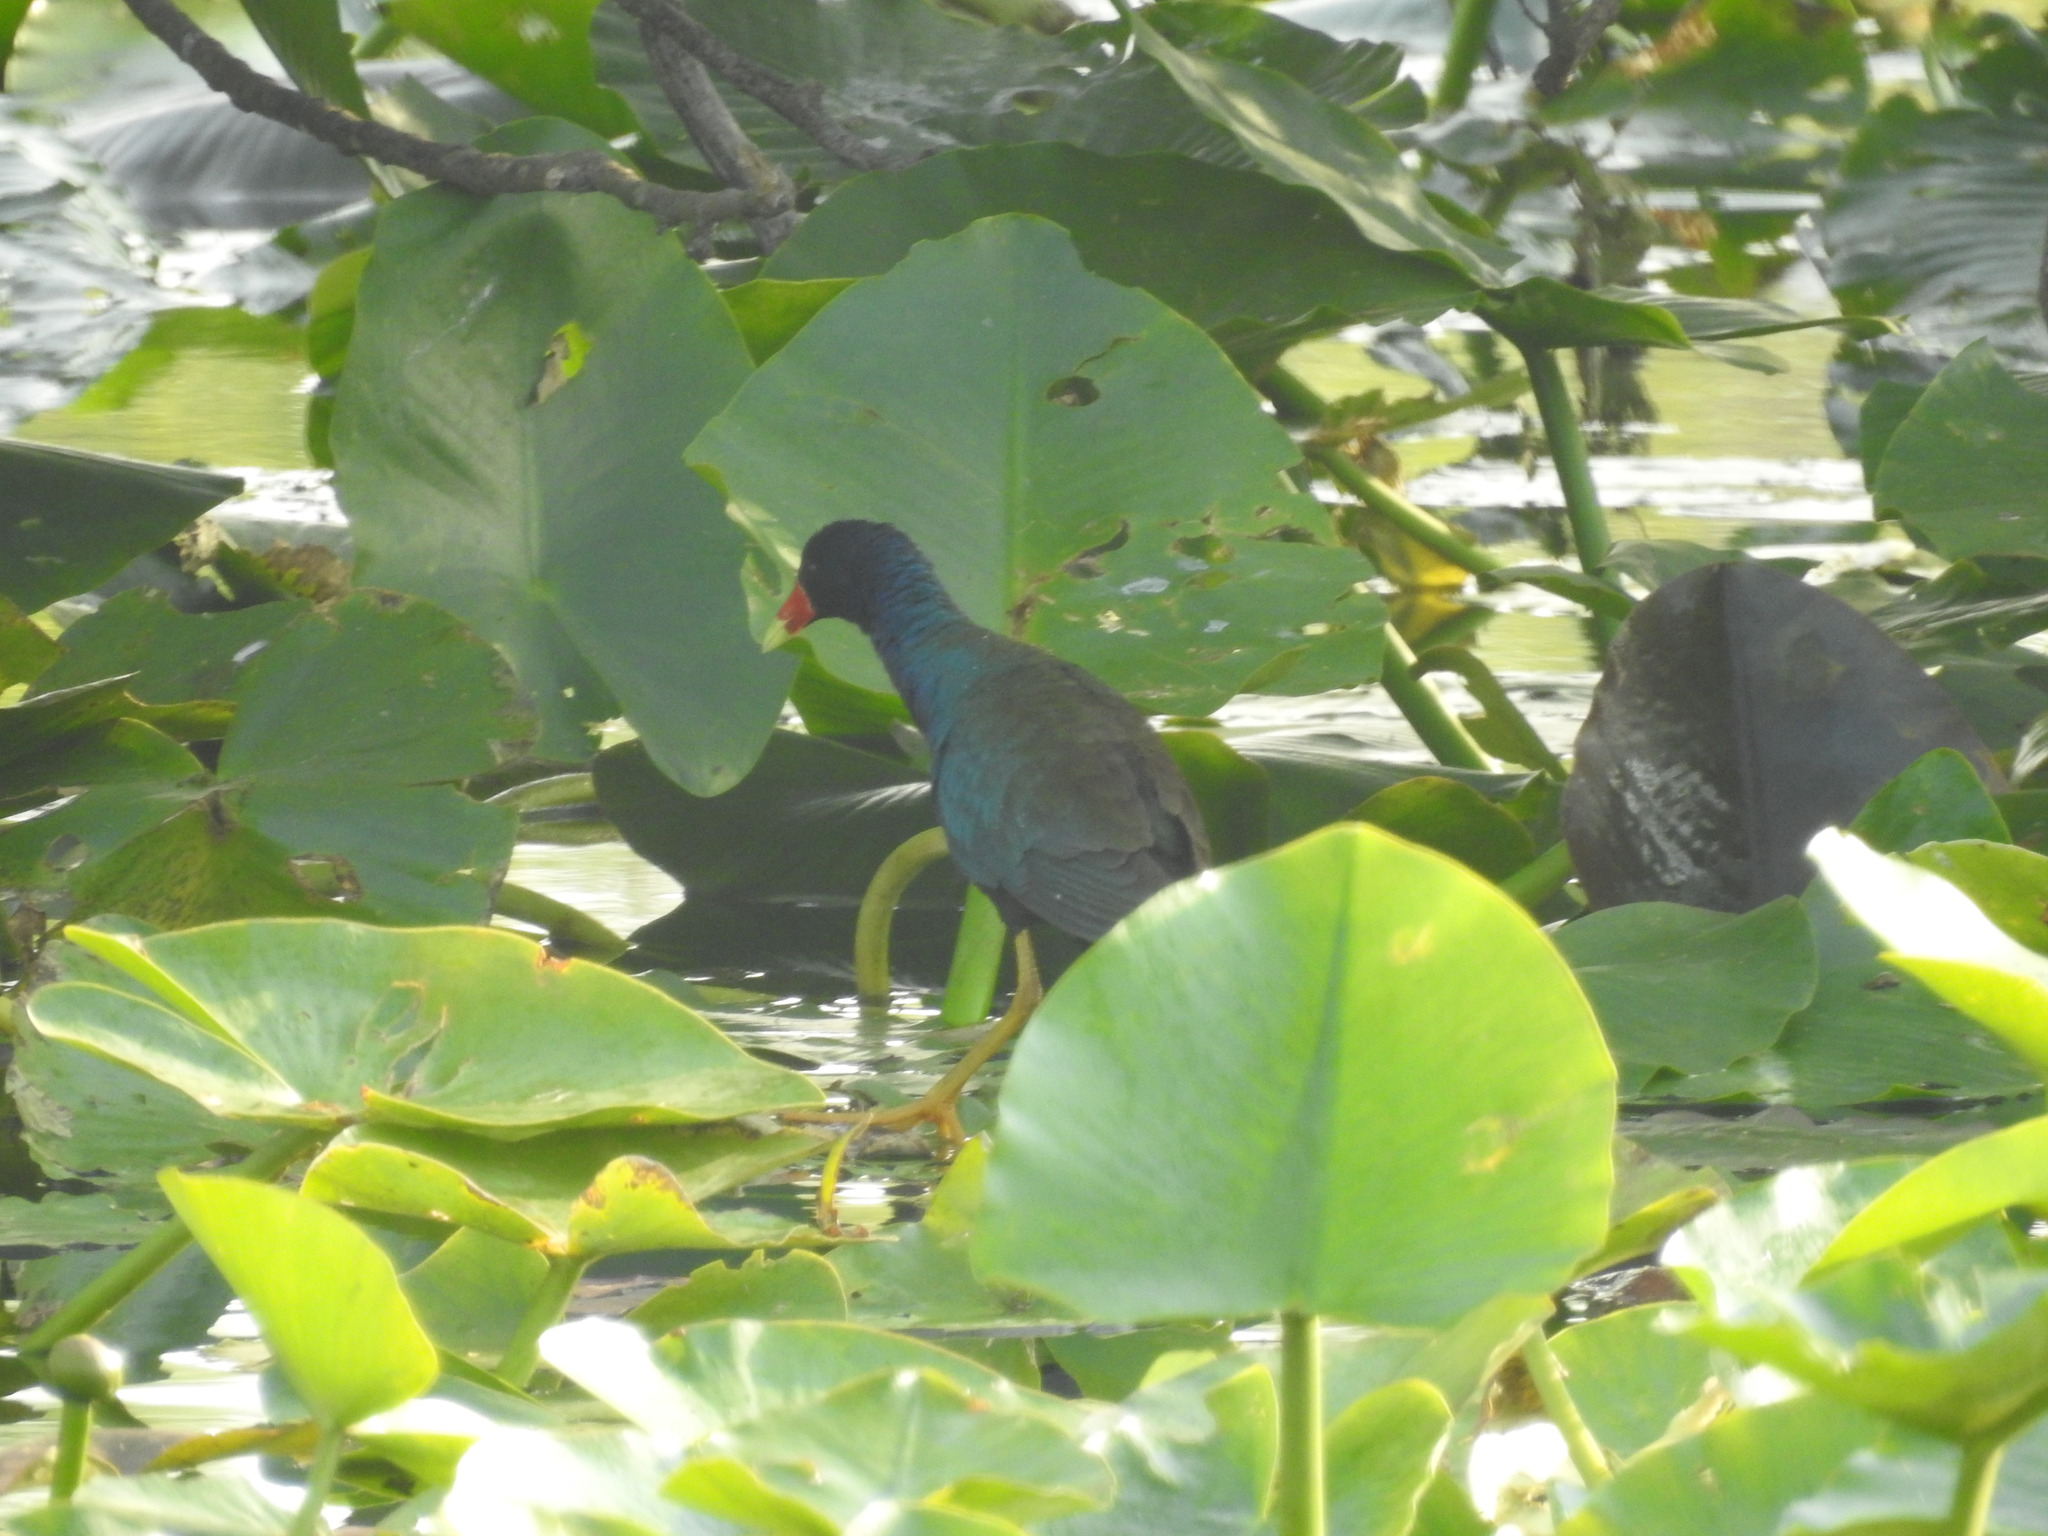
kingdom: Animalia
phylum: Chordata
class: Aves
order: Gruiformes
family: Rallidae
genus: Porphyrio
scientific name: Porphyrio martinica
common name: Purple gallinule
